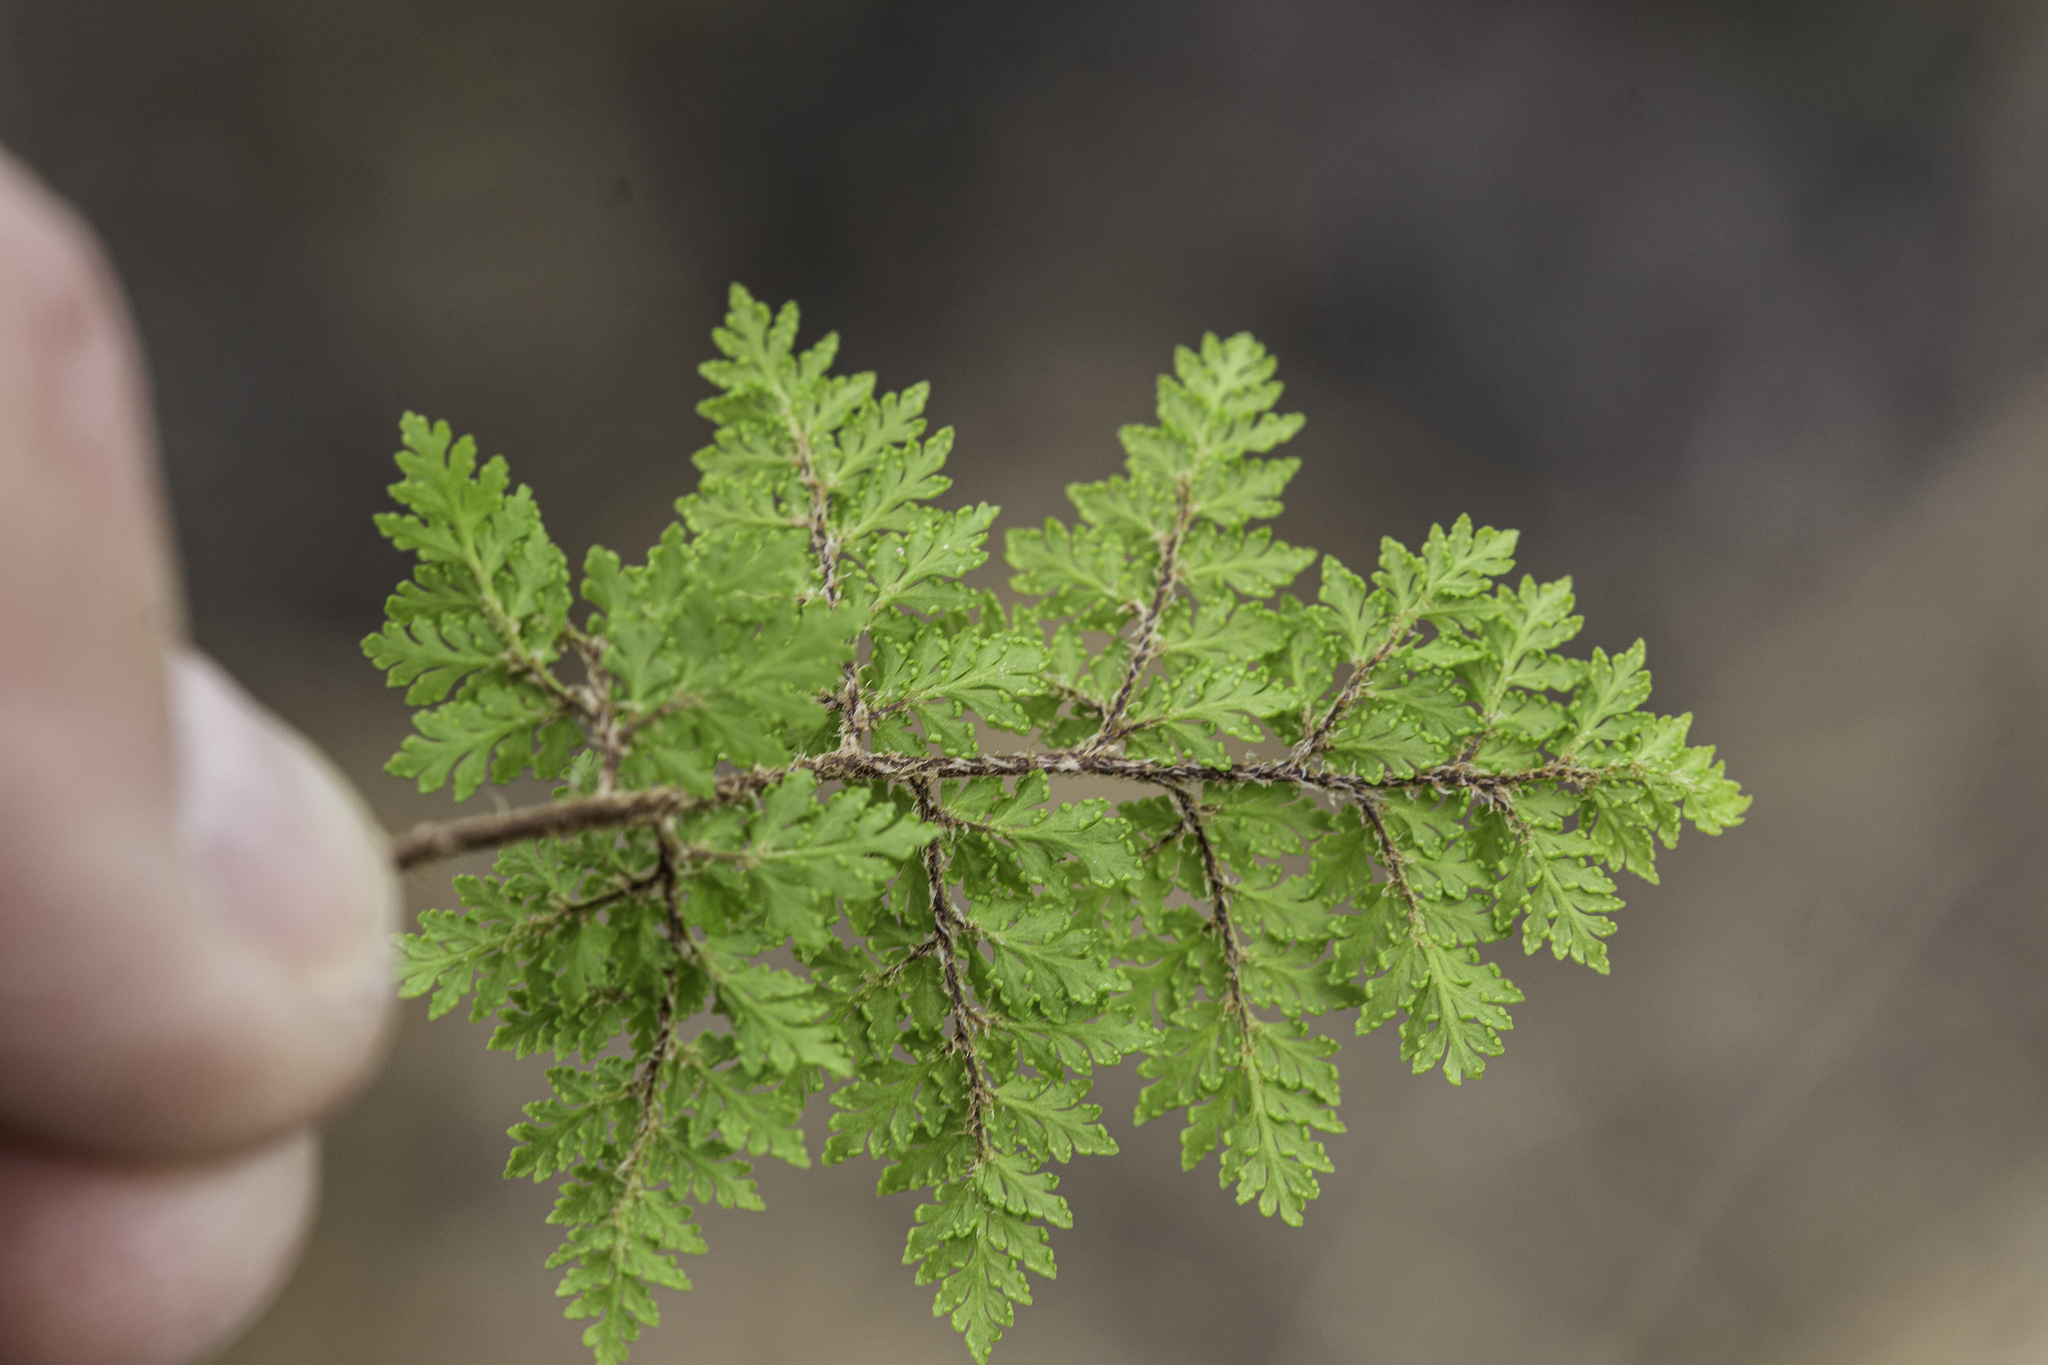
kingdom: Plantae
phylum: Tracheophyta
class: Polypodiopsida
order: Polypodiales
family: Pteridaceae
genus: Myriopteris
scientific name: Myriopteris pringlei
